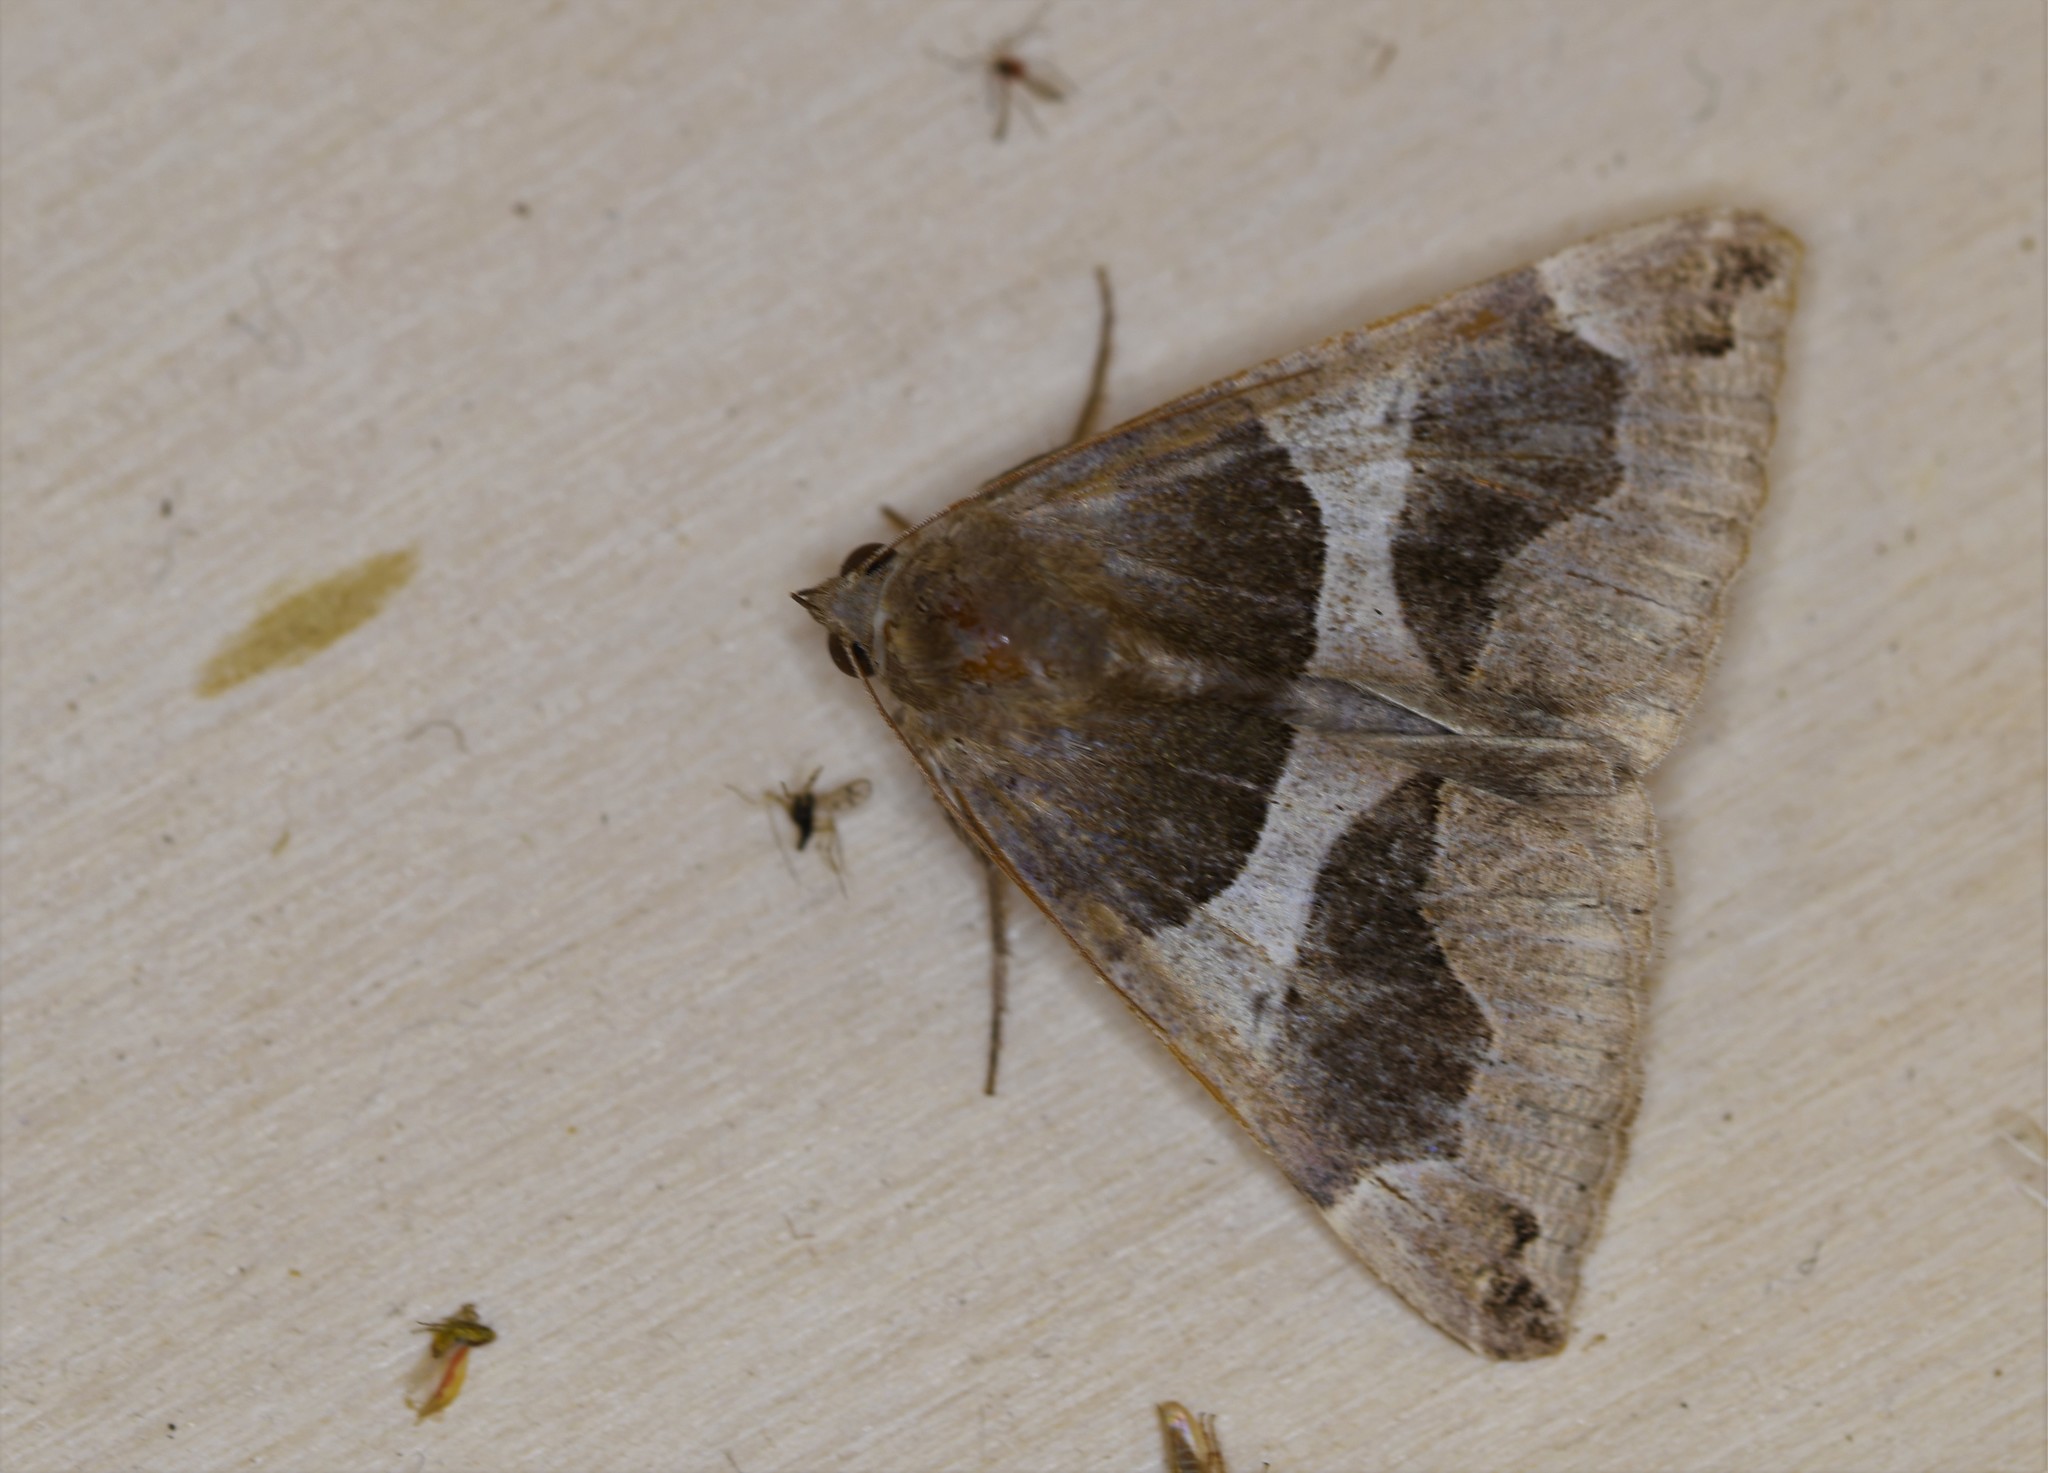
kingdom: Animalia
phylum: Arthropoda
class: Insecta
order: Lepidoptera
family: Erebidae
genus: Dysgonia
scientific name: Dysgonia algira
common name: Passenger
